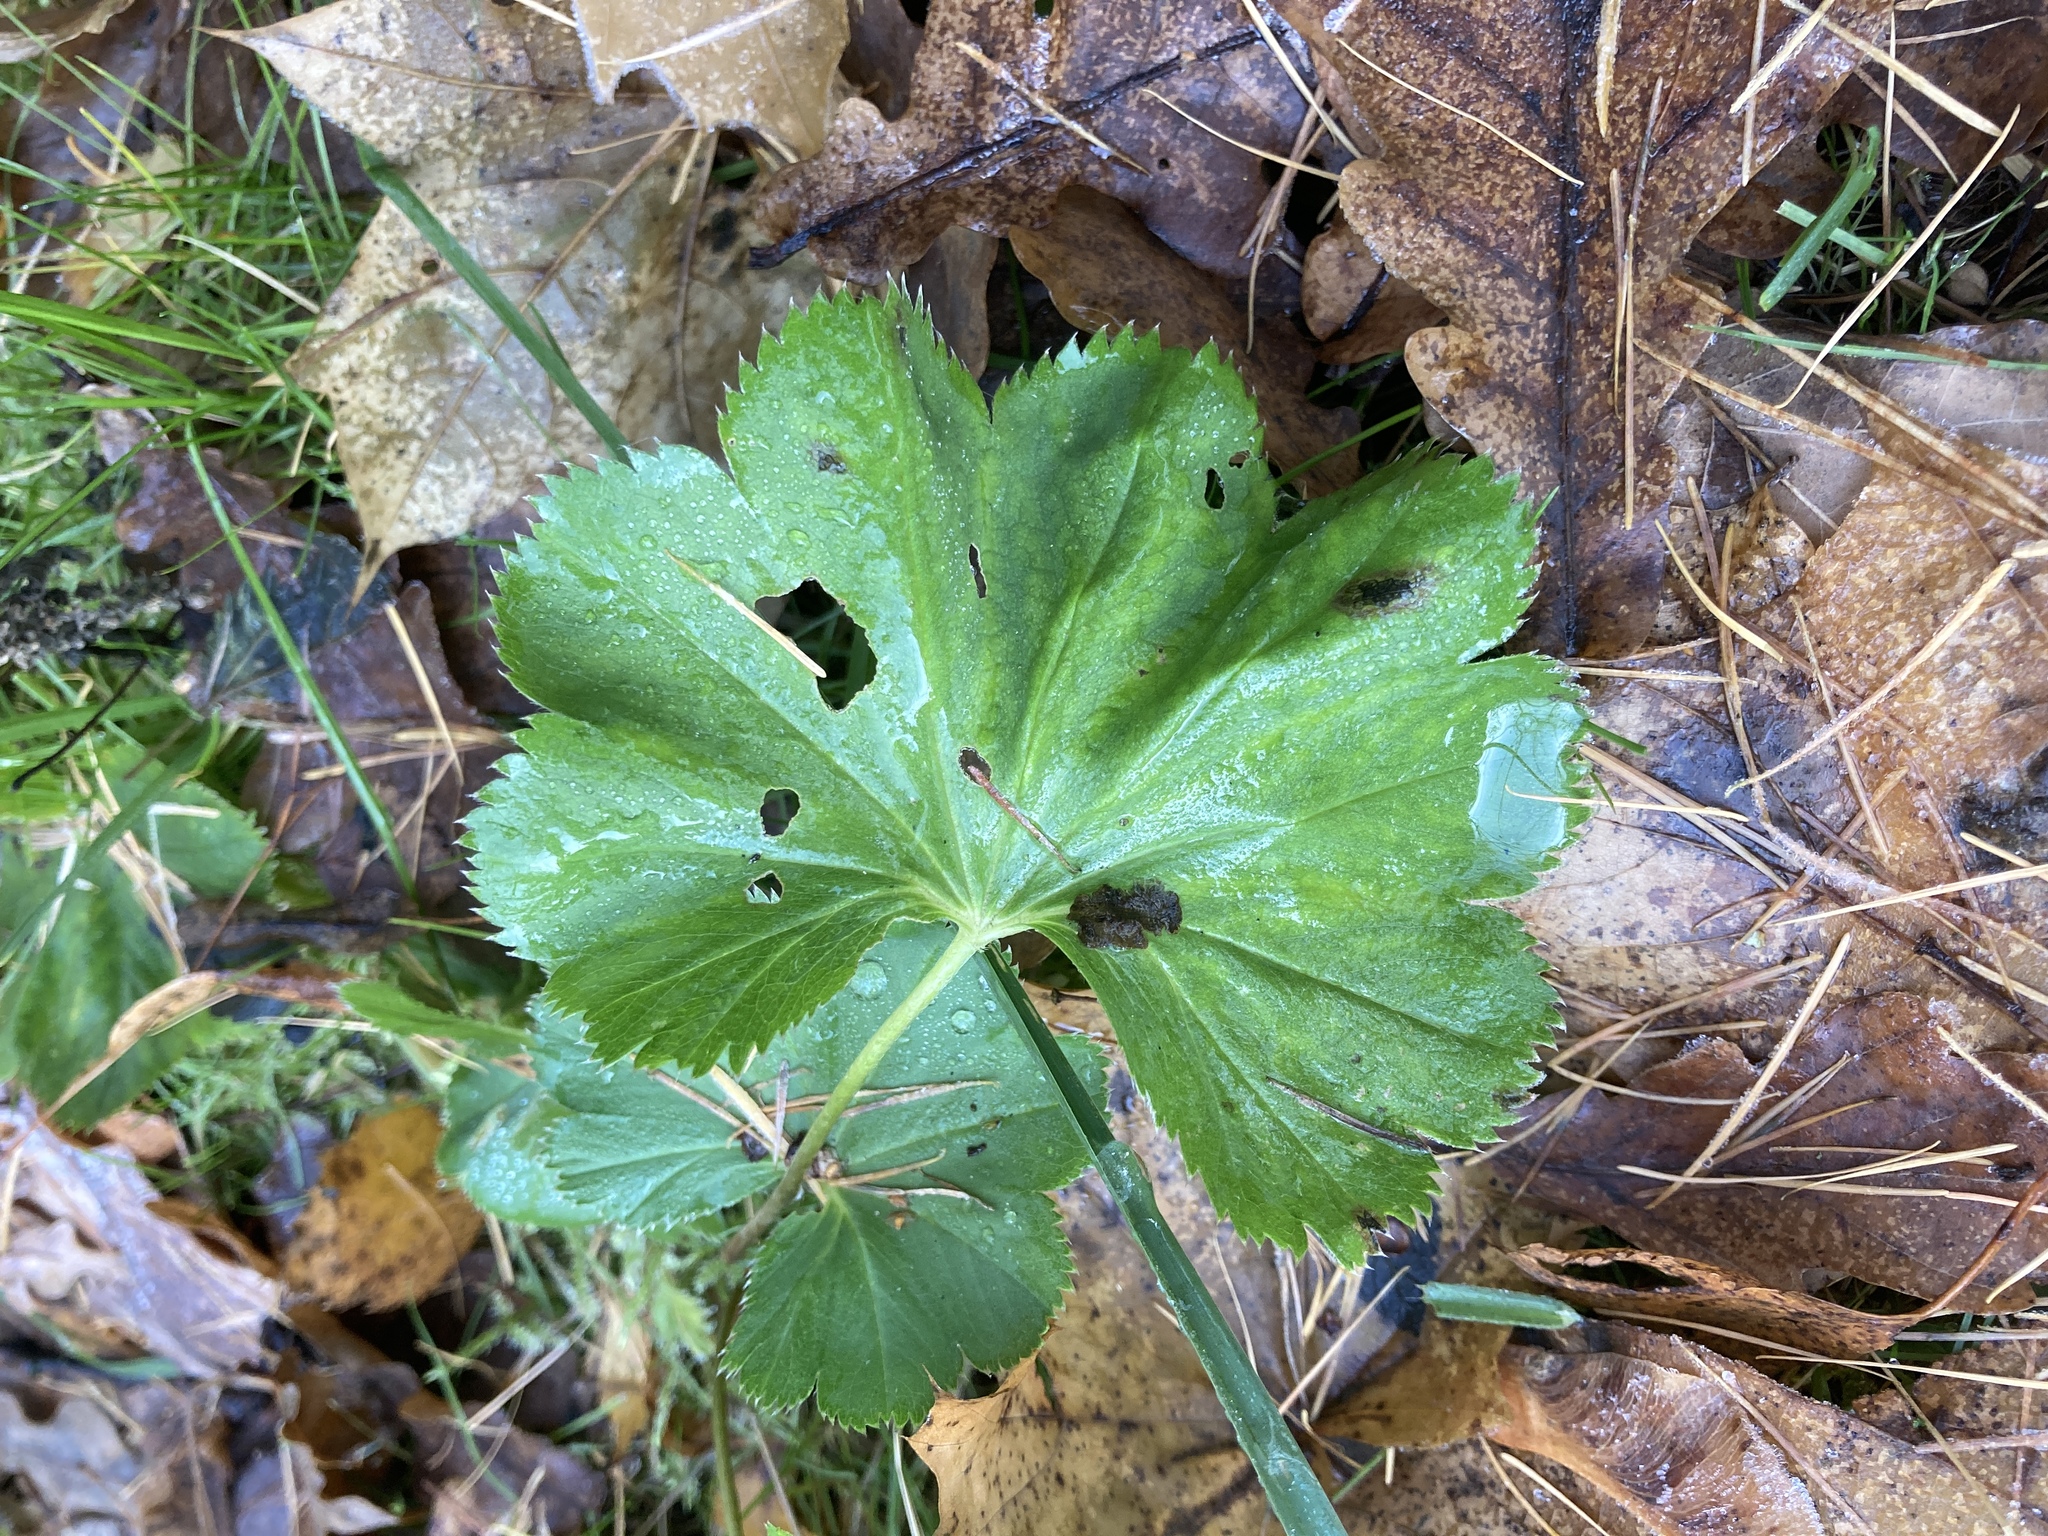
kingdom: Plantae
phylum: Tracheophyta
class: Magnoliopsida
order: Rosales
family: Rosaceae
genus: Alchemilla
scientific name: Alchemilla baltica
